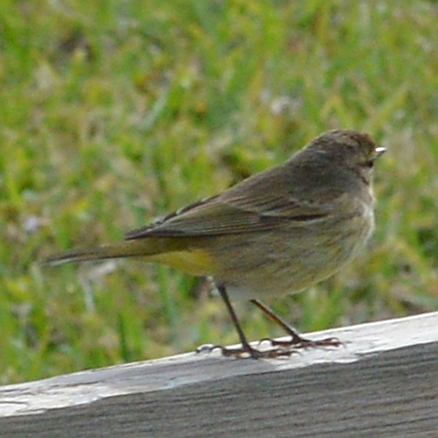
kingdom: Animalia
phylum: Chordata
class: Aves
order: Passeriformes
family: Parulidae
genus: Setophaga
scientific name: Setophaga palmarum
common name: Palm warbler
